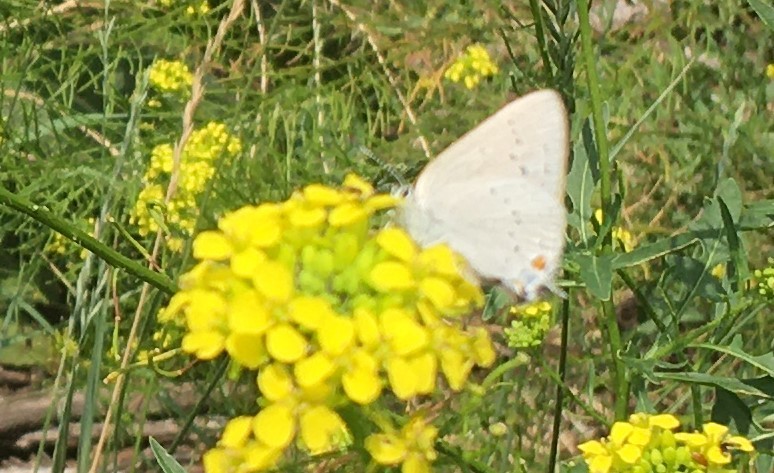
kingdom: Animalia
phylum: Arthropoda
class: Insecta
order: Lepidoptera
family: Lycaenidae
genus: Strymon
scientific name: Strymon sylvinus
